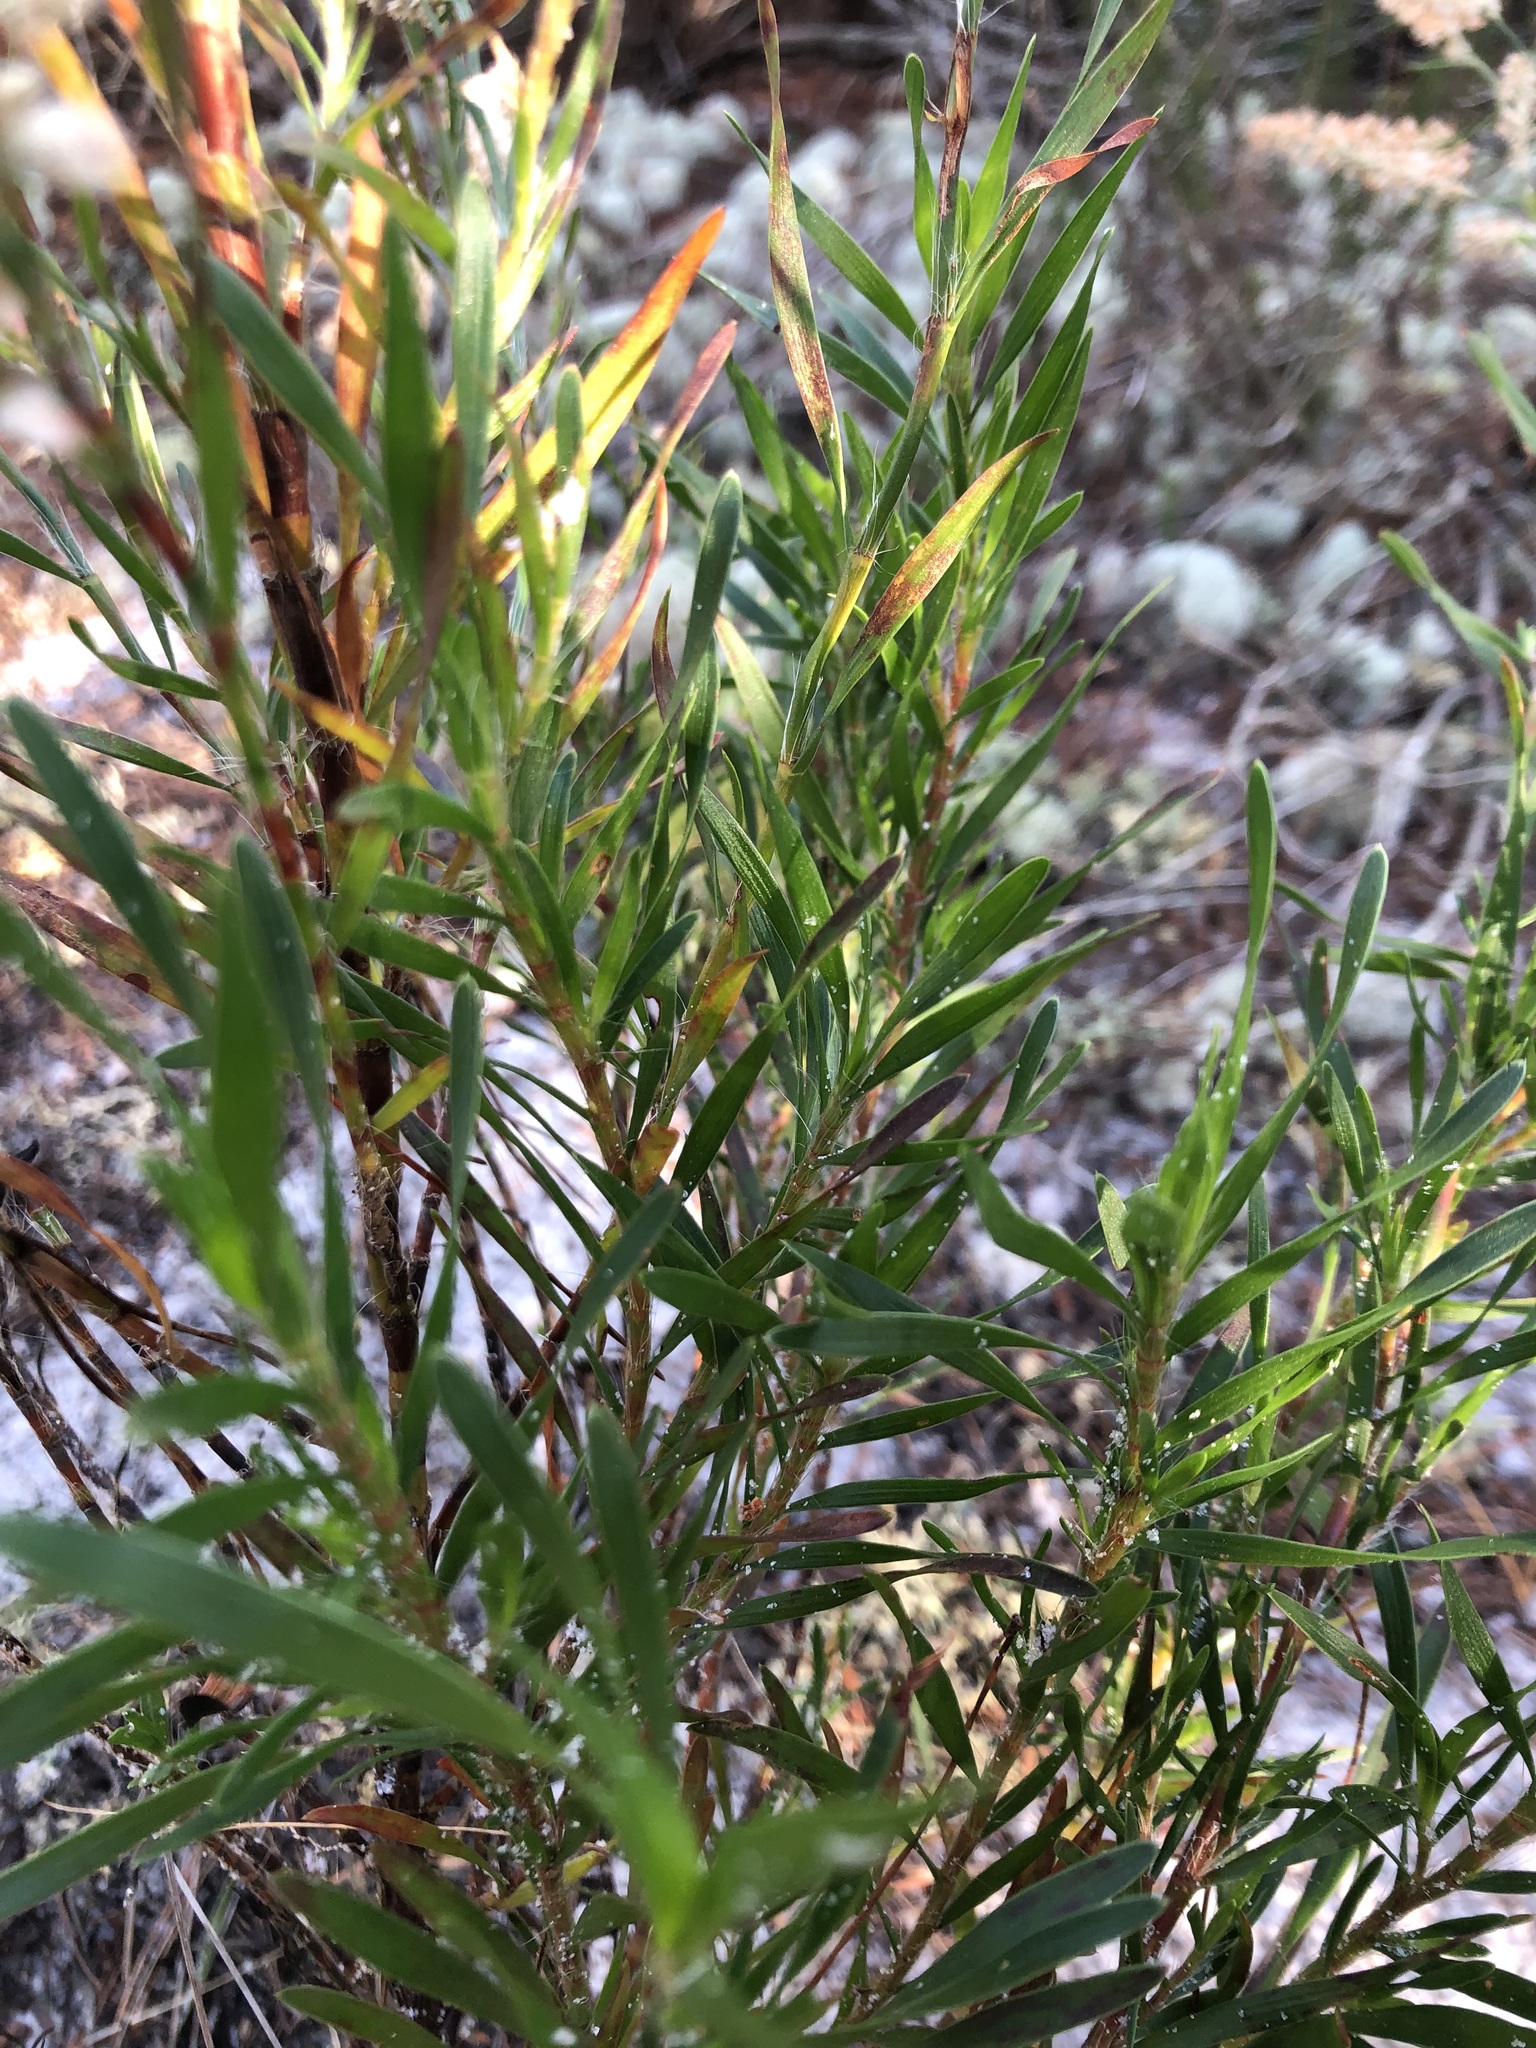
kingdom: Plantae
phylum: Tracheophyta
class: Magnoliopsida
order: Caryophyllales
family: Polygonaceae
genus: Polygonella
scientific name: Polygonella robusta
